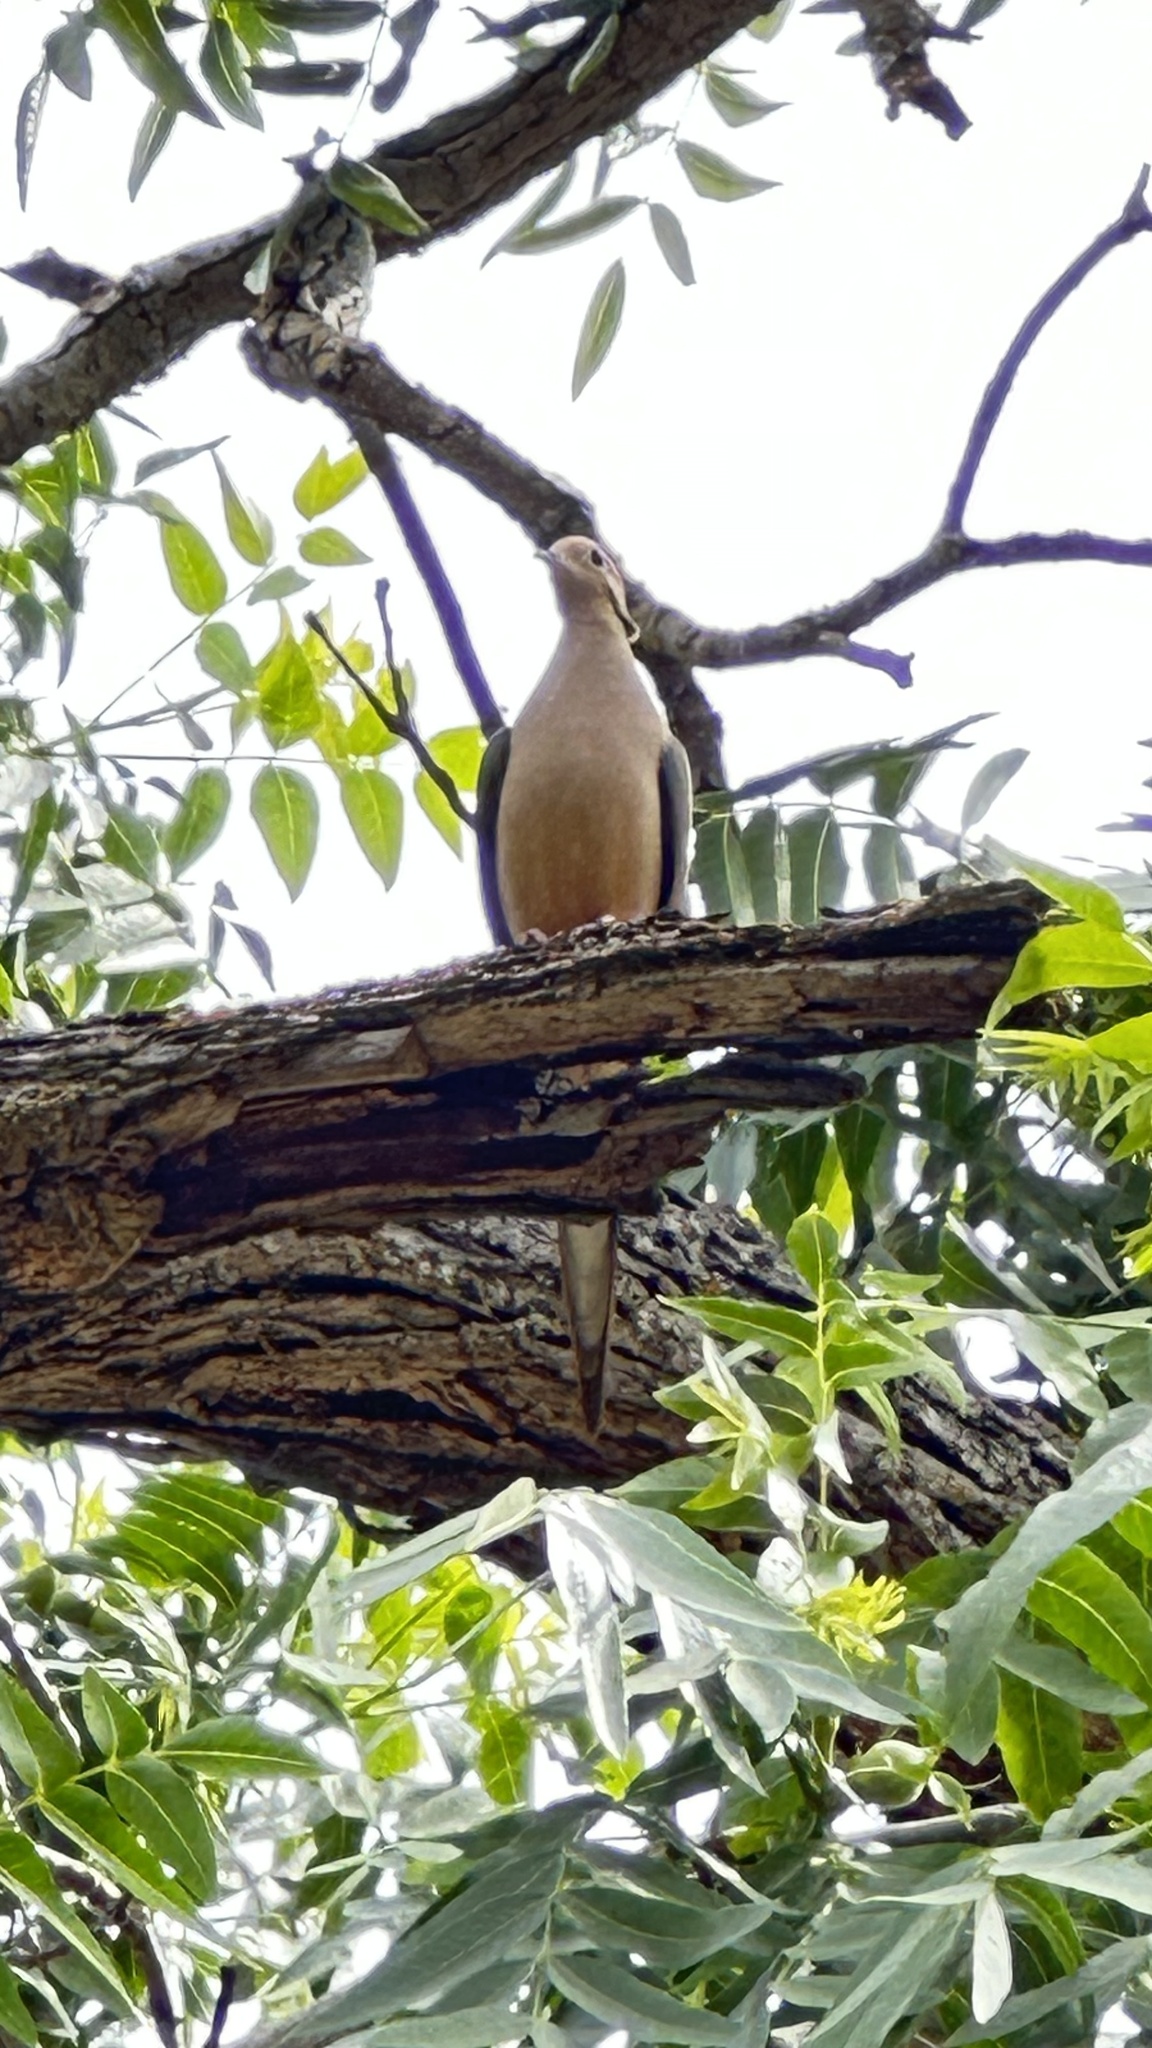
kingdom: Animalia
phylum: Chordata
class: Aves
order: Columbiformes
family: Columbidae
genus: Zenaida
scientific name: Zenaida macroura
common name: Mourning dove
